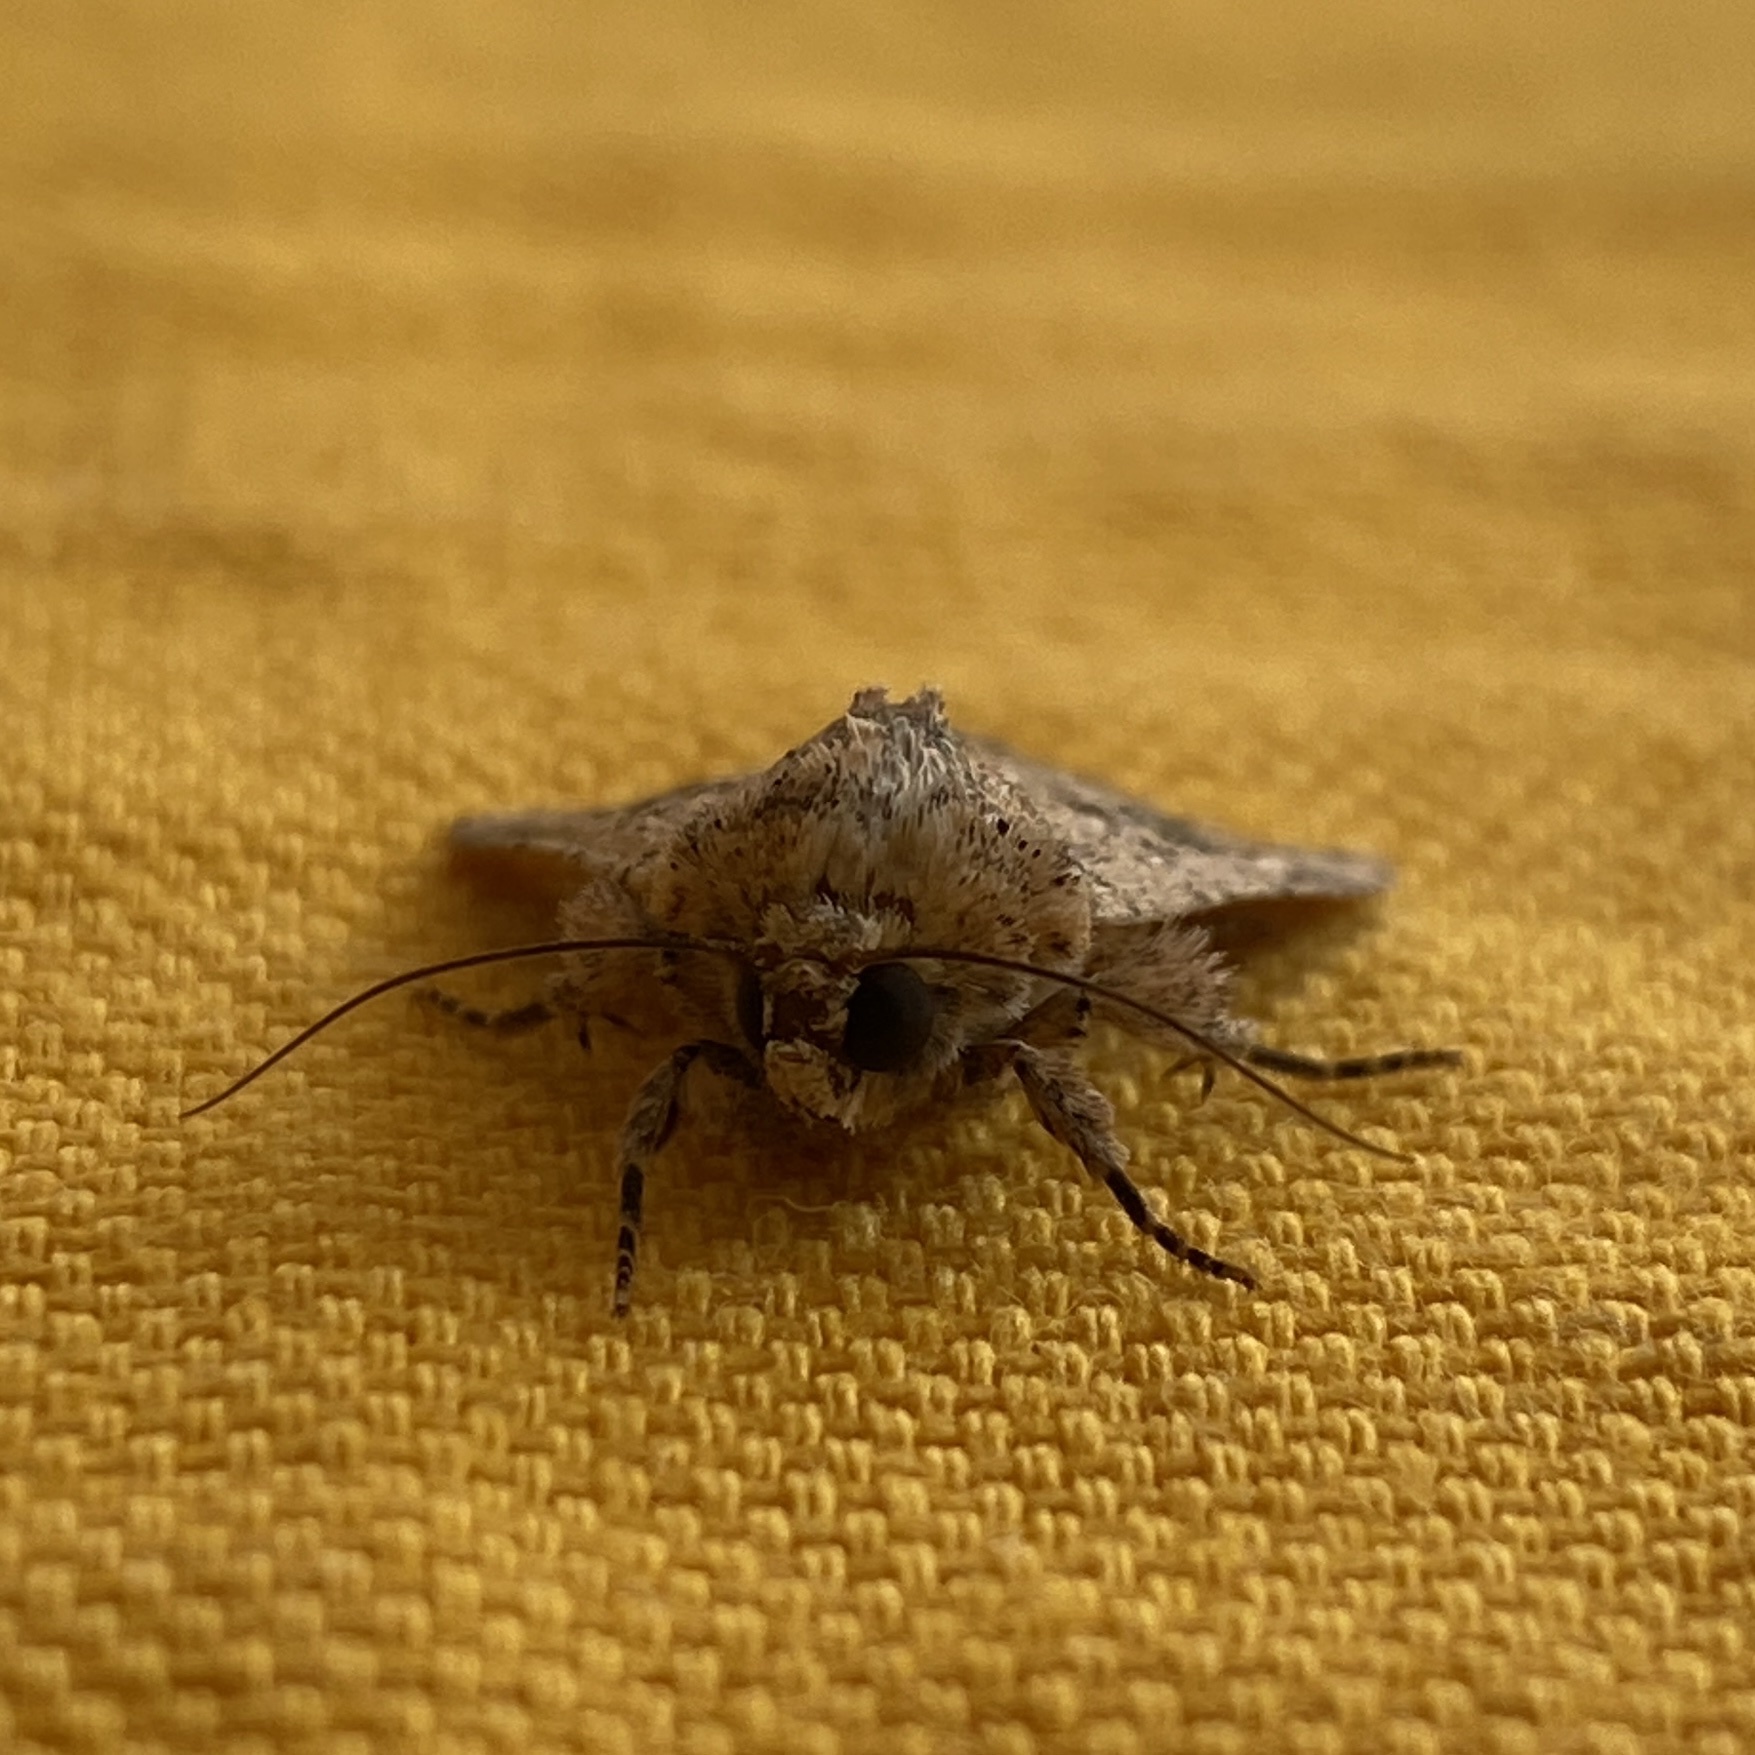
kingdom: Animalia
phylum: Arthropoda
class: Insecta
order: Lepidoptera
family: Noctuidae
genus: Mythimna
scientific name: Mythimna languida
